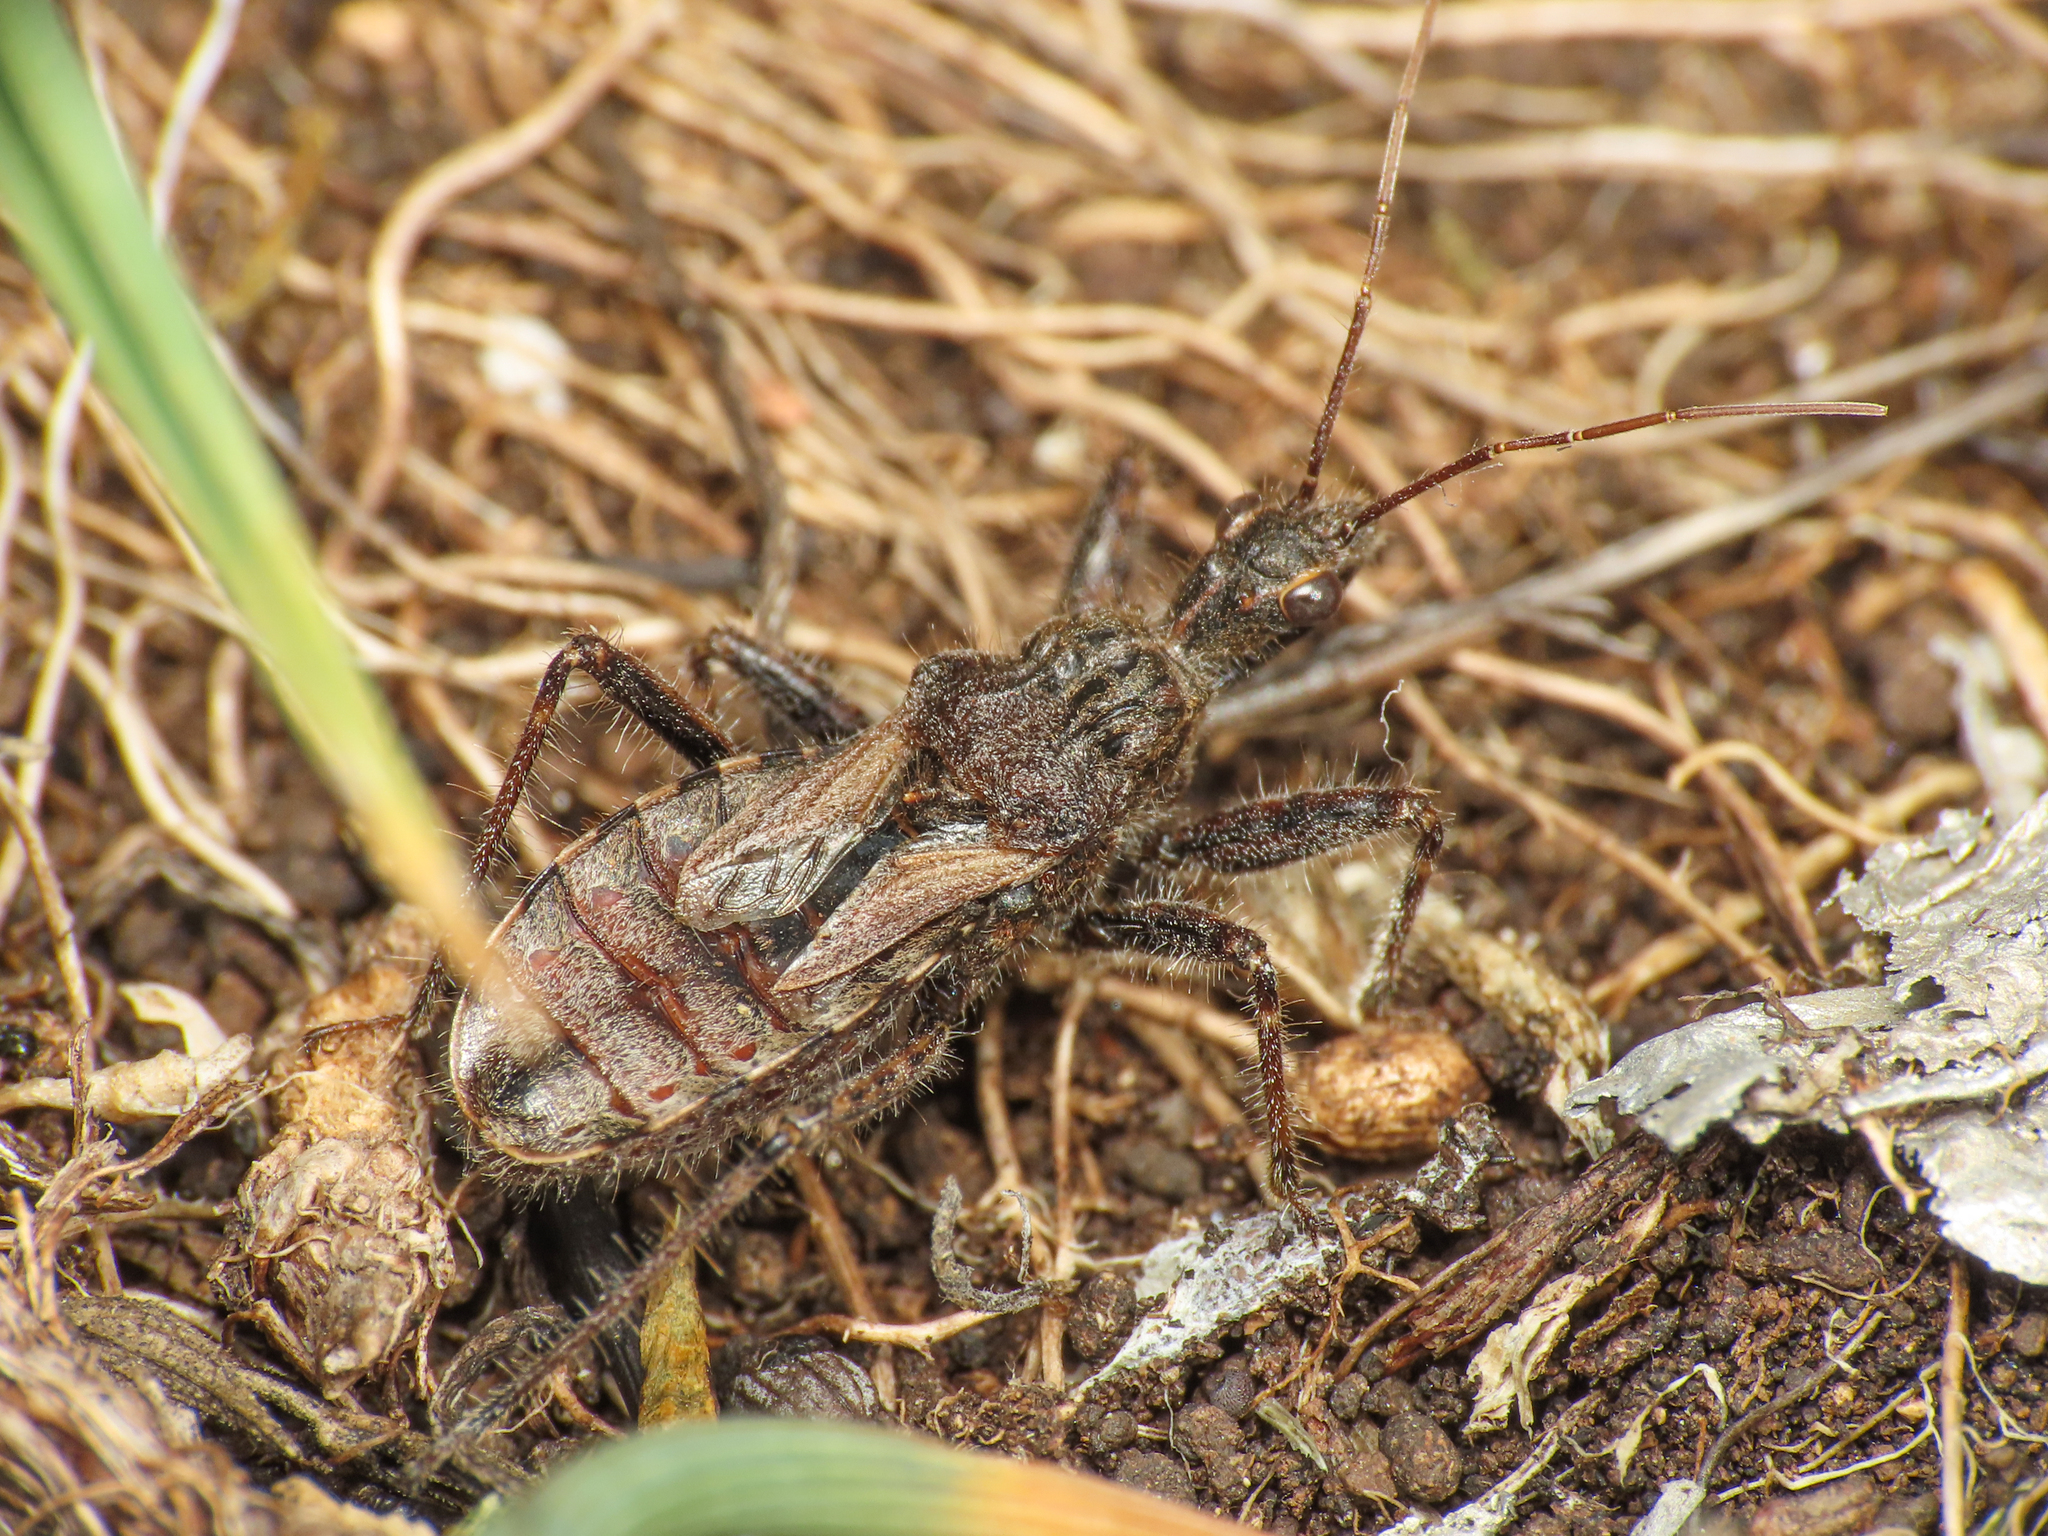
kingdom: Animalia
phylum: Arthropoda
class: Insecta
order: Hemiptera
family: Reduviidae
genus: Coranus
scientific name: Coranus subapterus
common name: Heath assassin bug
